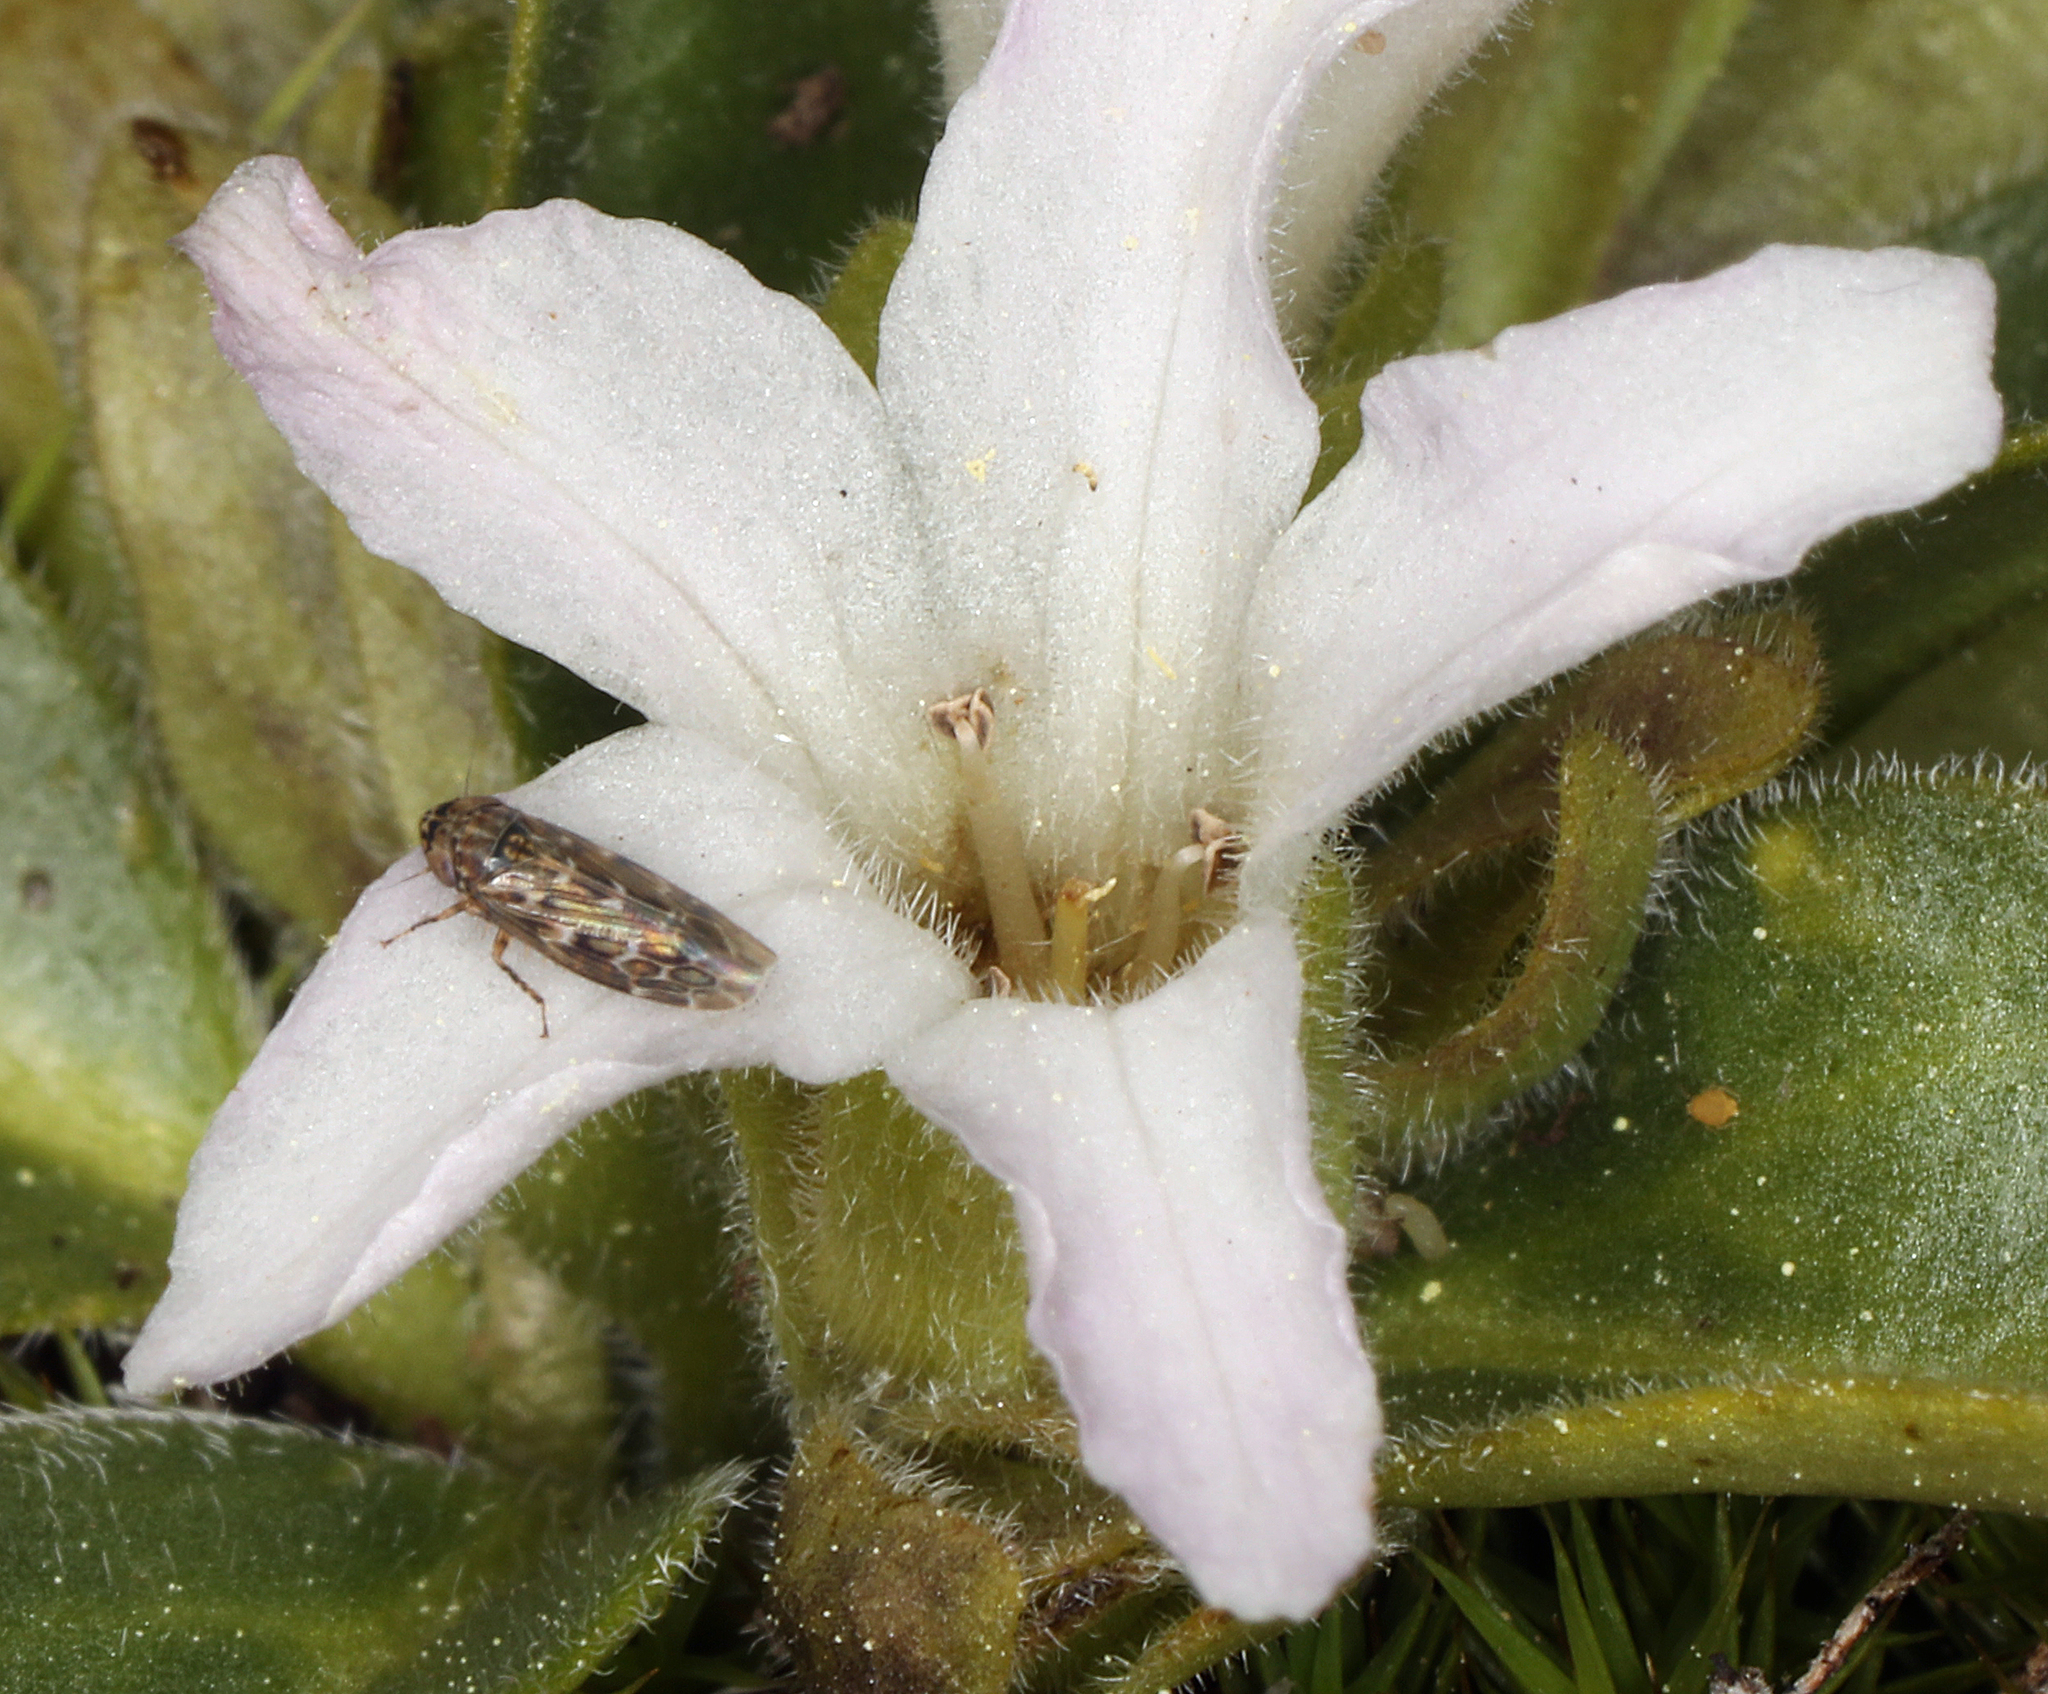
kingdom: Plantae
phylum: Tracheophyta
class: Magnoliopsida
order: Boraginales
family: Hydrophyllaceae
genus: Hesperochiron
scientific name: Hesperochiron californicus
